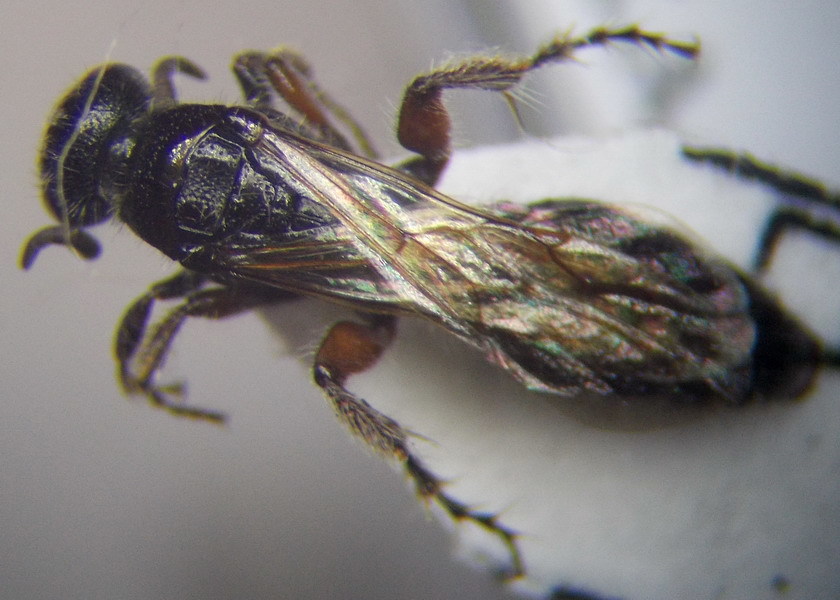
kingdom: Animalia
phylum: Arthropoda
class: Insecta
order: Hymenoptera
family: Tiphiidae
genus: Tiphia
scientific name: Tiphia femorata
